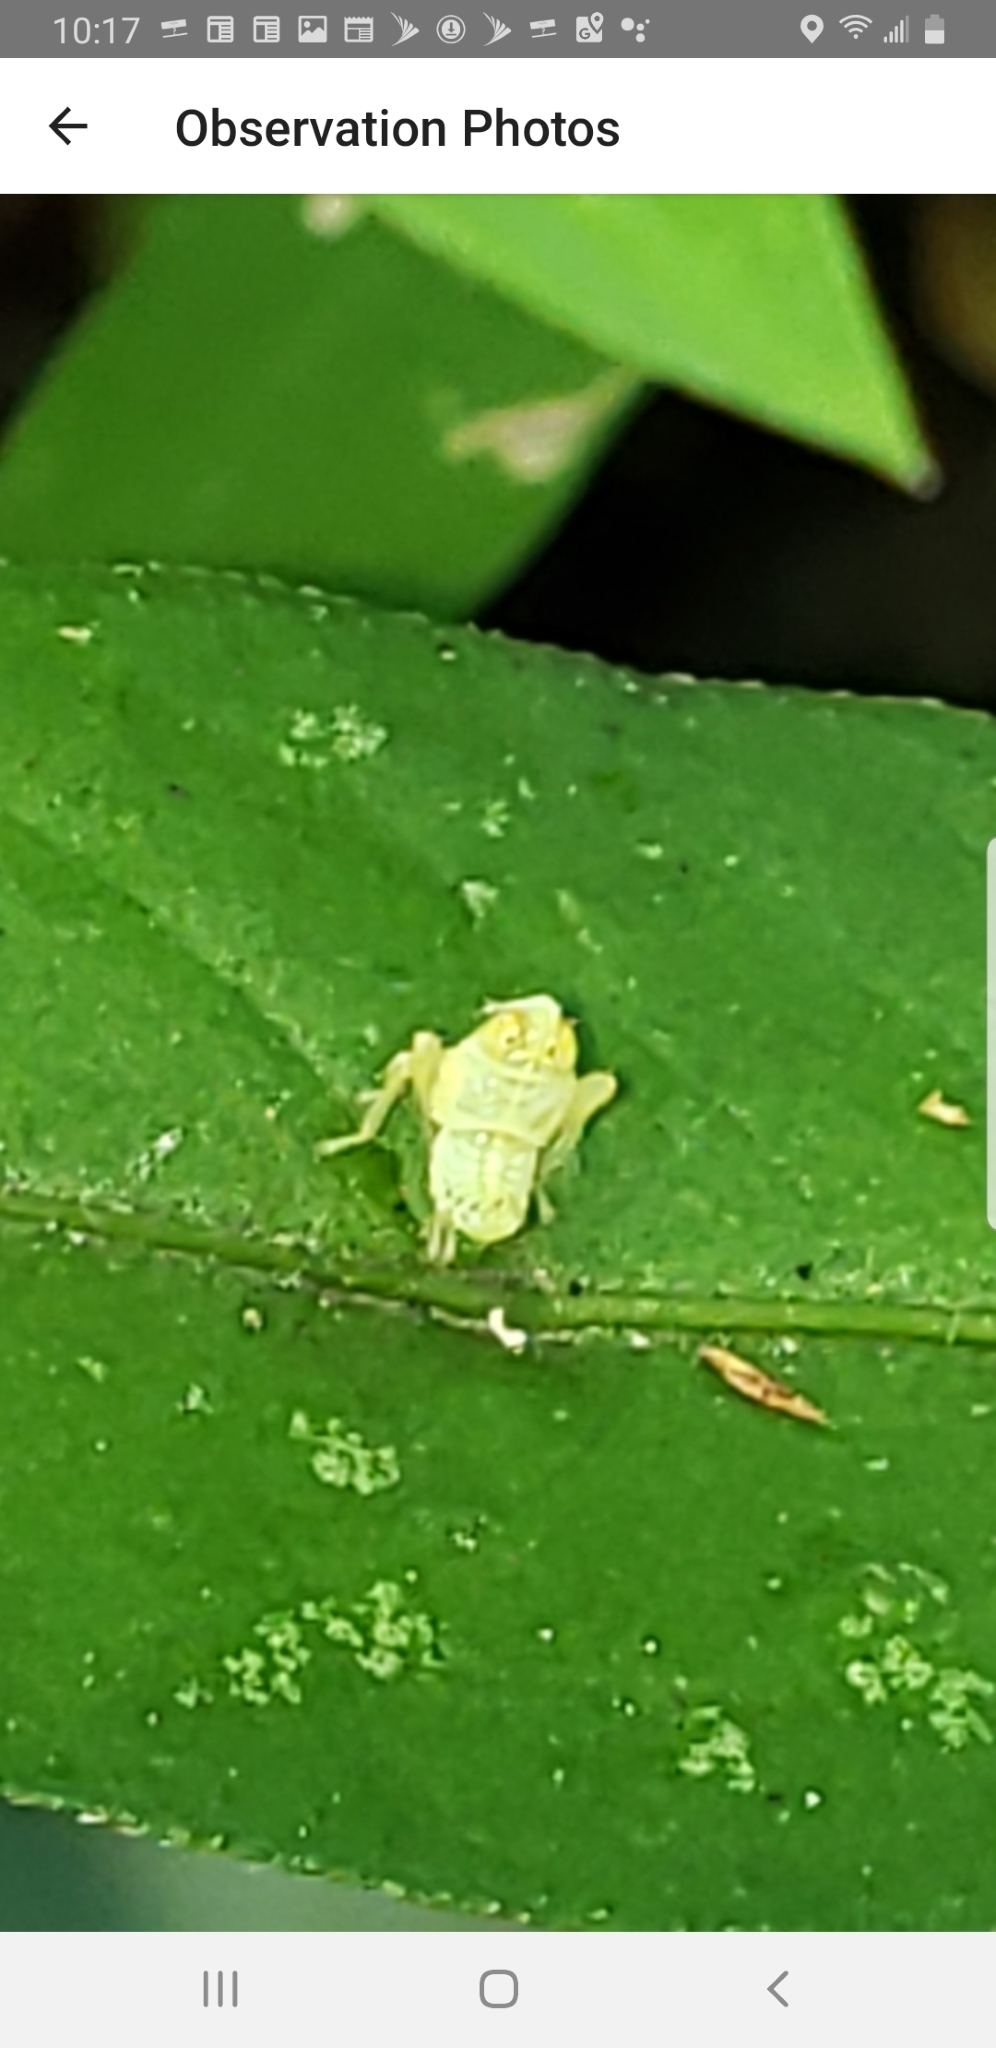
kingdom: Animalia
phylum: Arthropoda
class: Insecta
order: Hemiptera
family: Cicadellidae
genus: Jikradia
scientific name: Jikradia olitoria
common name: Coppery leafhopper
